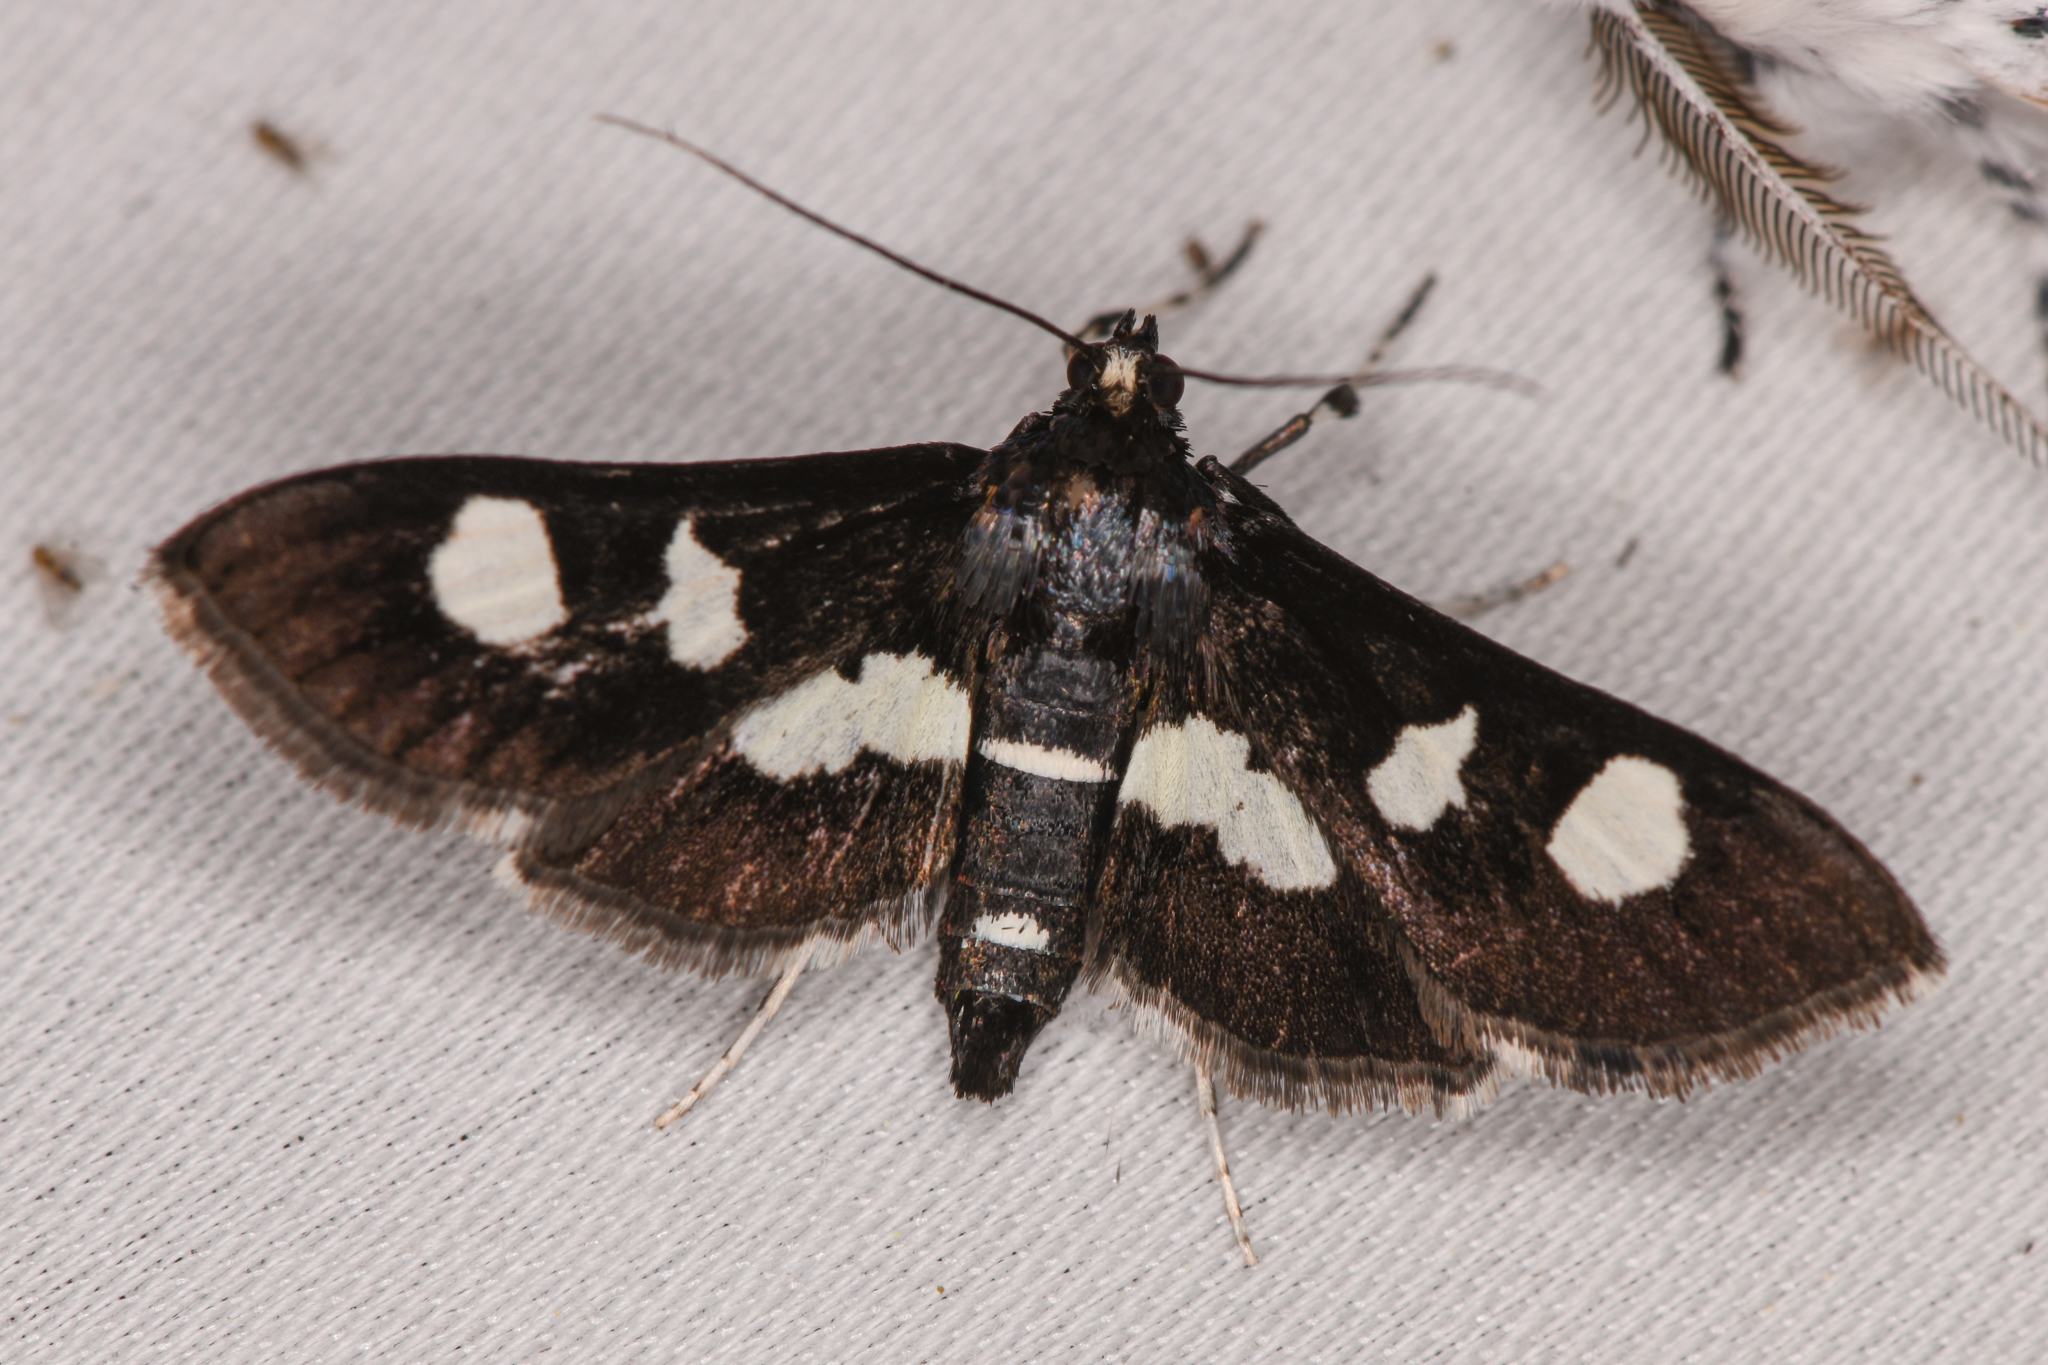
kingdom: Animalia
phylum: Arthropoda
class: Insecta
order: Lepidoptera
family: Crambidae
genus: Desmia
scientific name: Desmia
